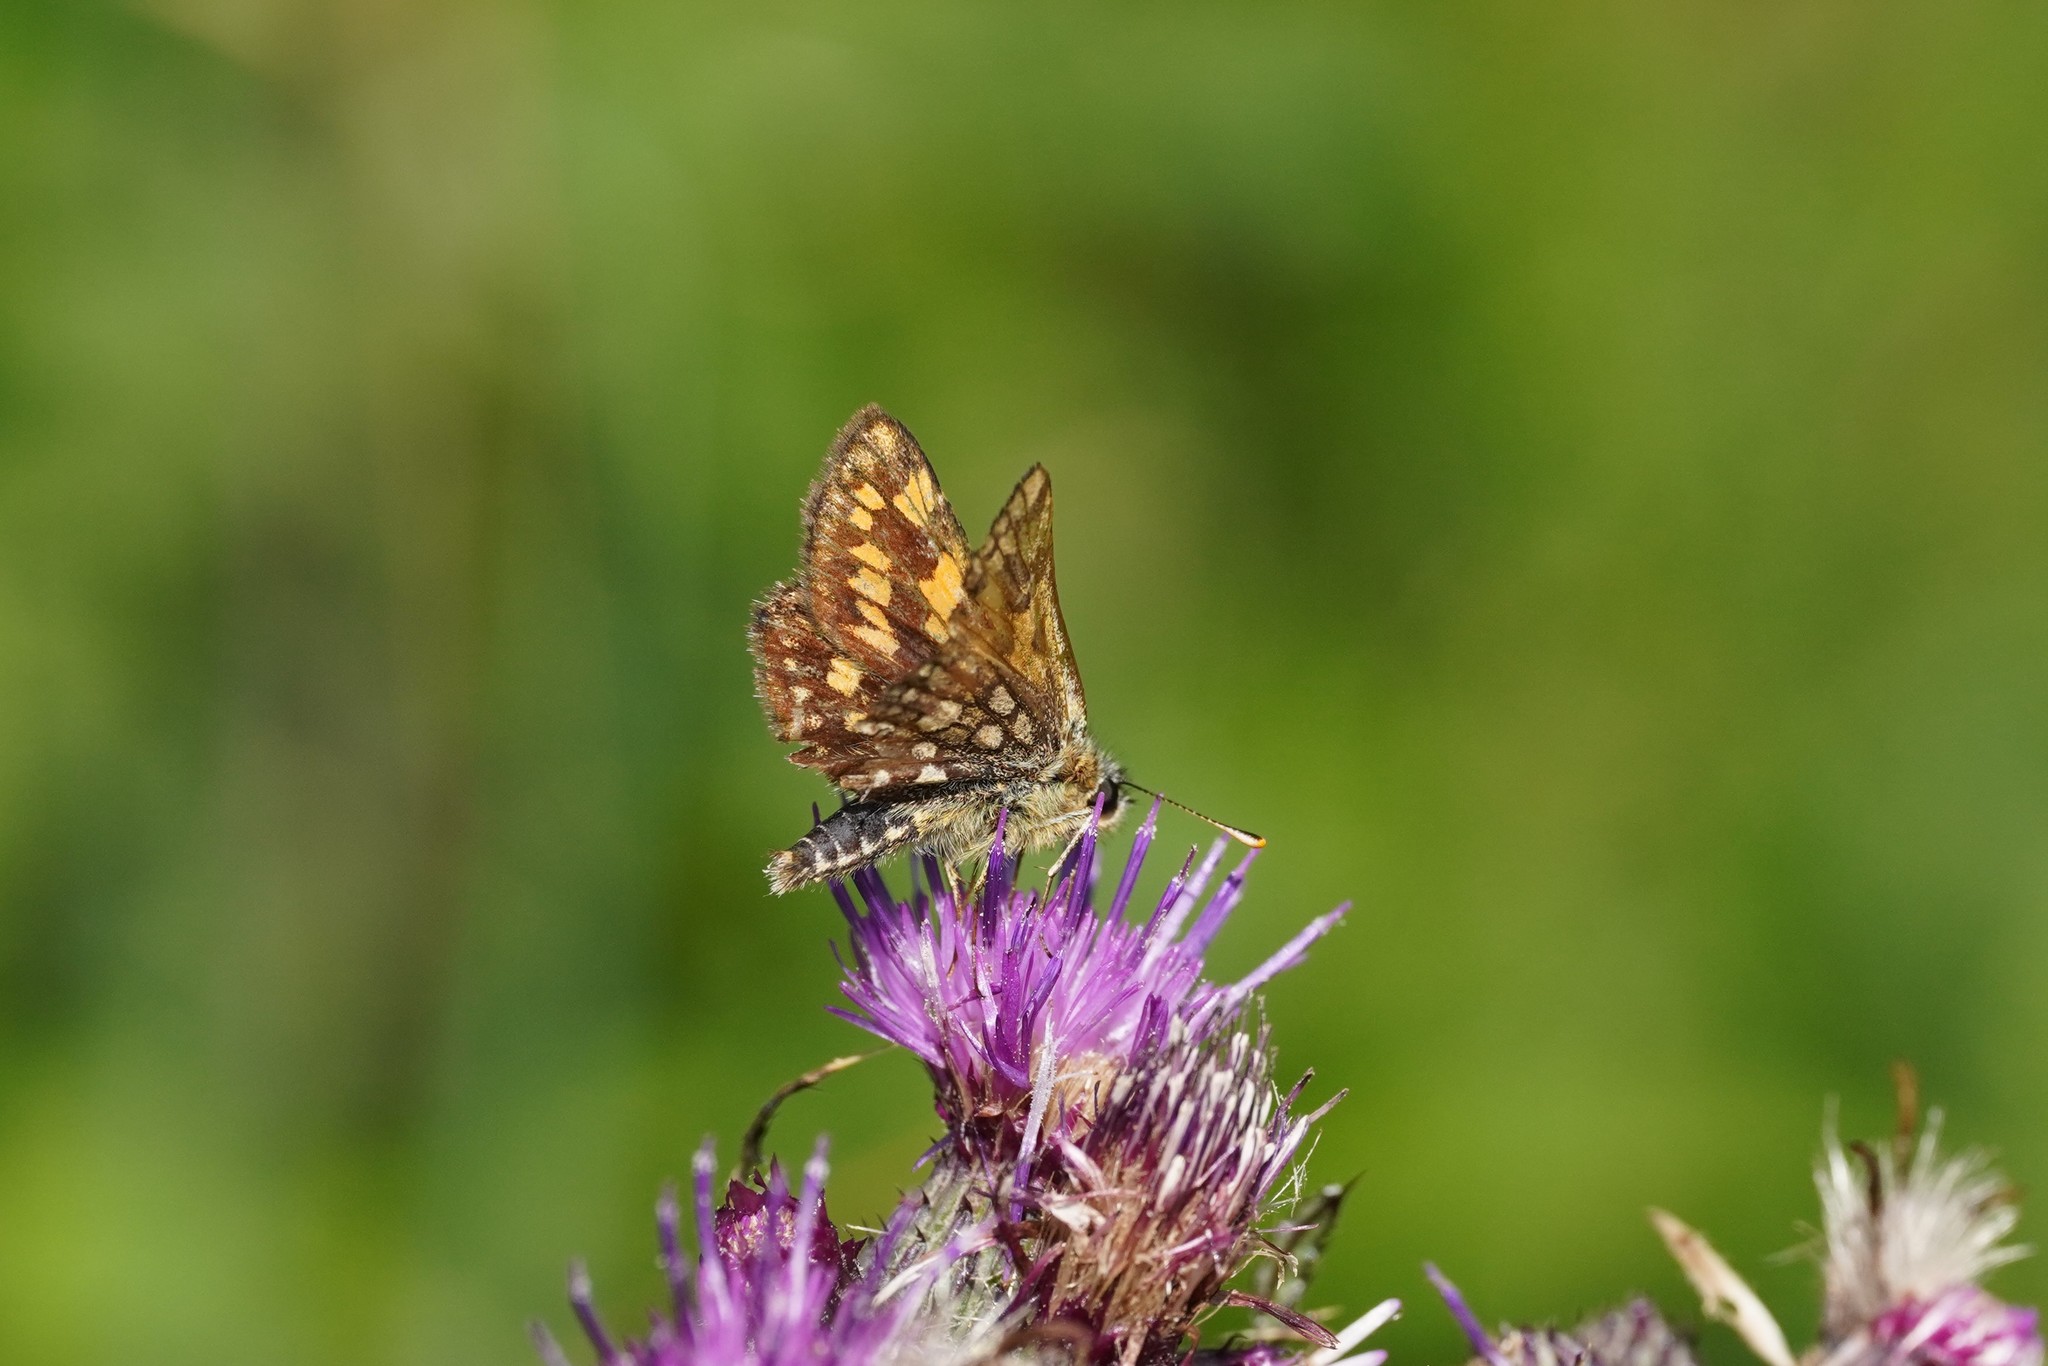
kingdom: Animalia
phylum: Arthropoda
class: Insecta
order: Lepidoptera
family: Hesperiidae
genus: Carterocephalus
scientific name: Carterocephalus palaemon
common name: Chequered skipper
